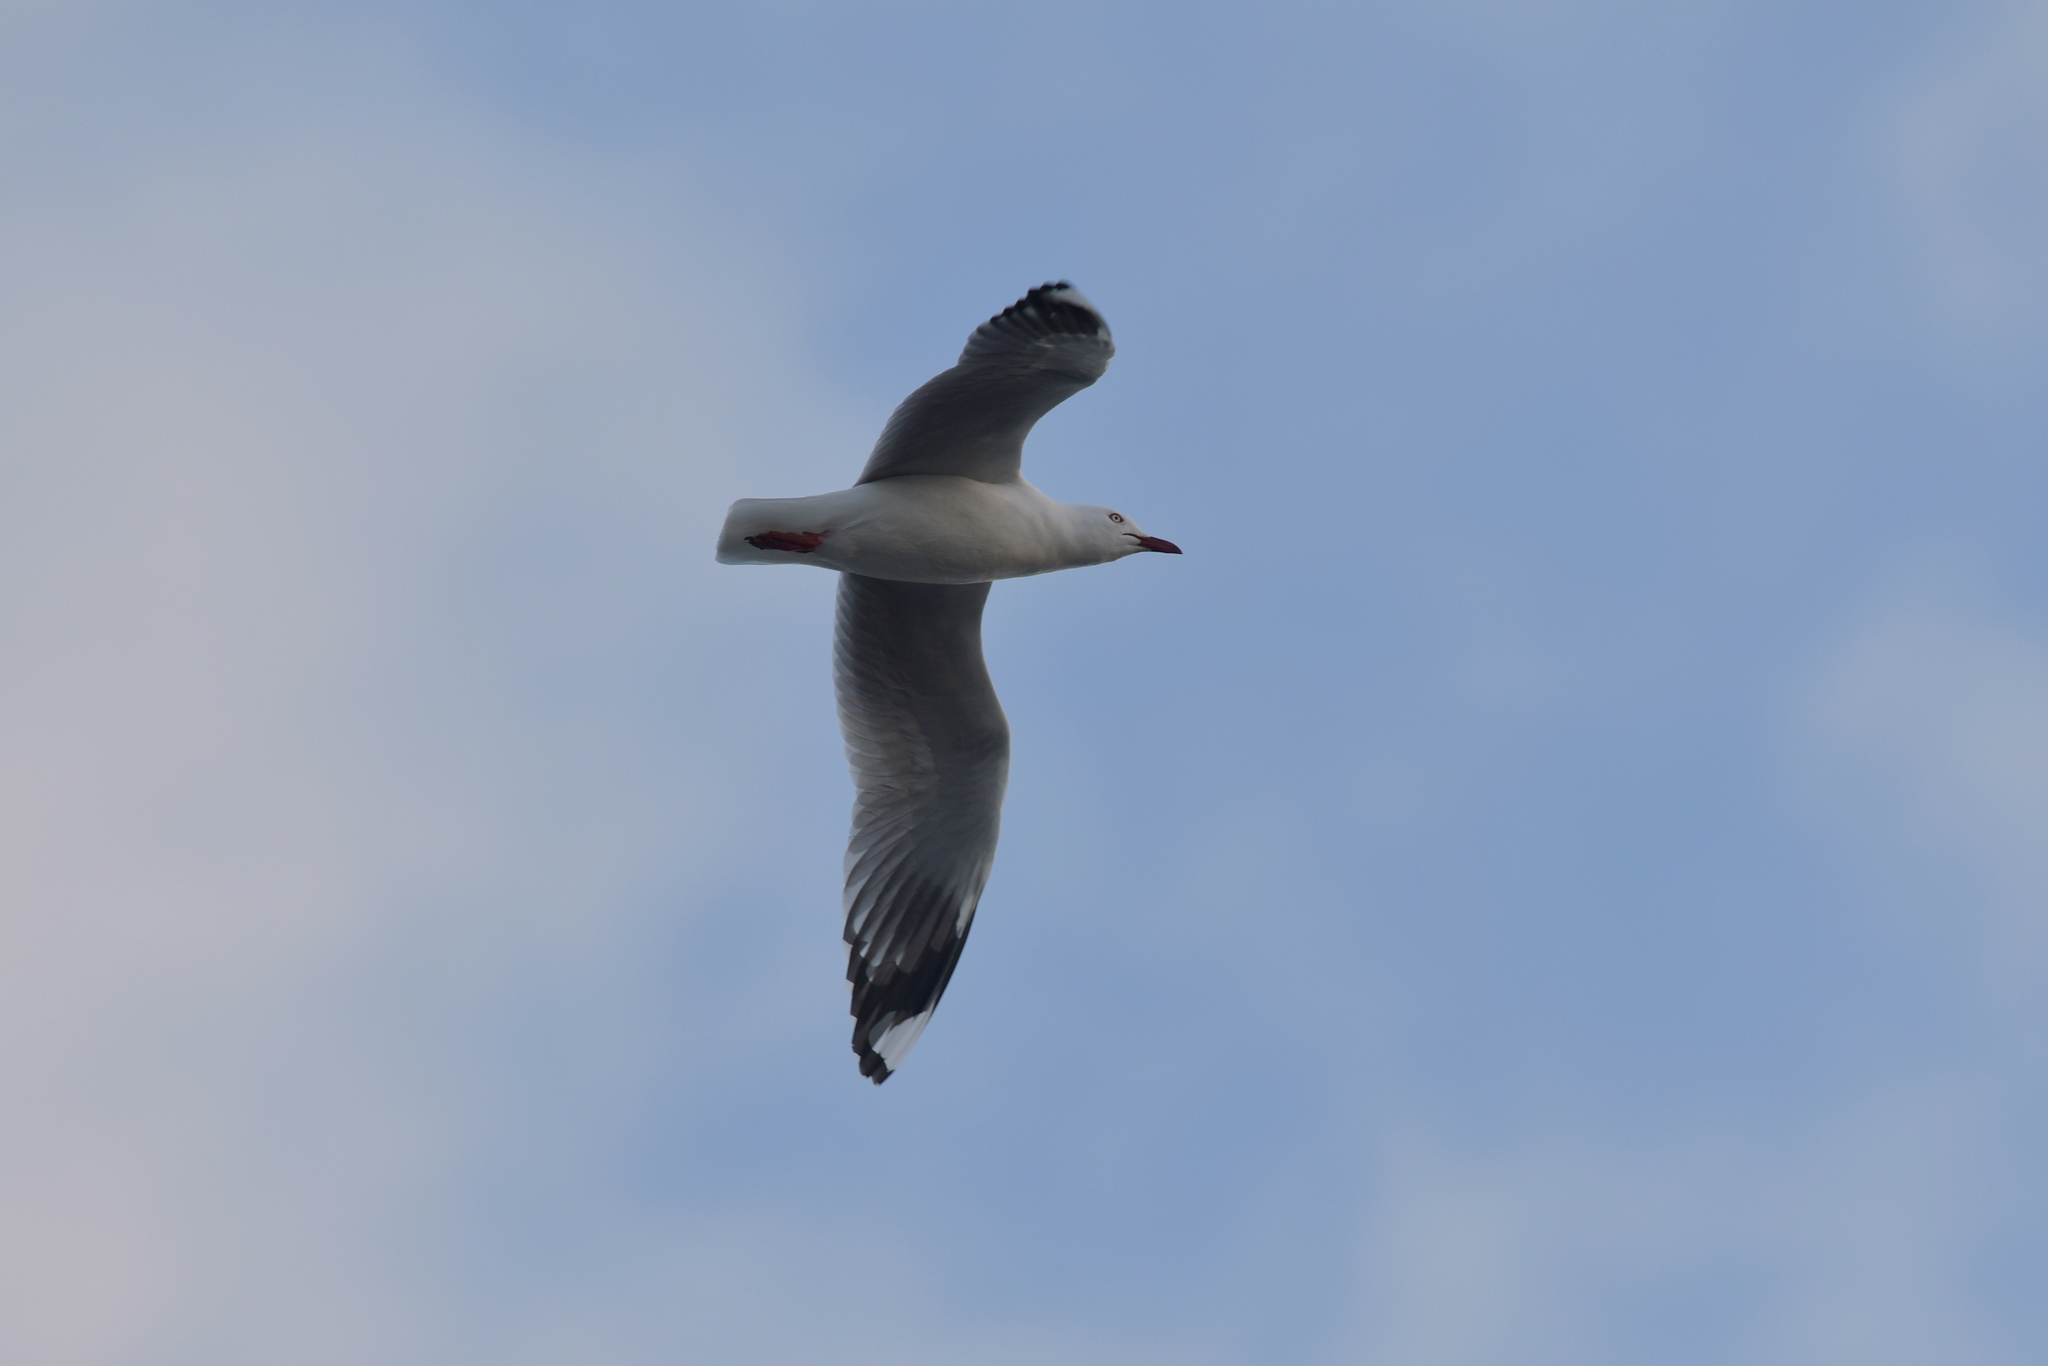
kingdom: Animalia
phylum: Chordata
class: Aves
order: Charadriiformes
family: Laridae
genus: Chroicocephalus
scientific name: Chroicocephalus novaehollandiae
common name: Silver gull
